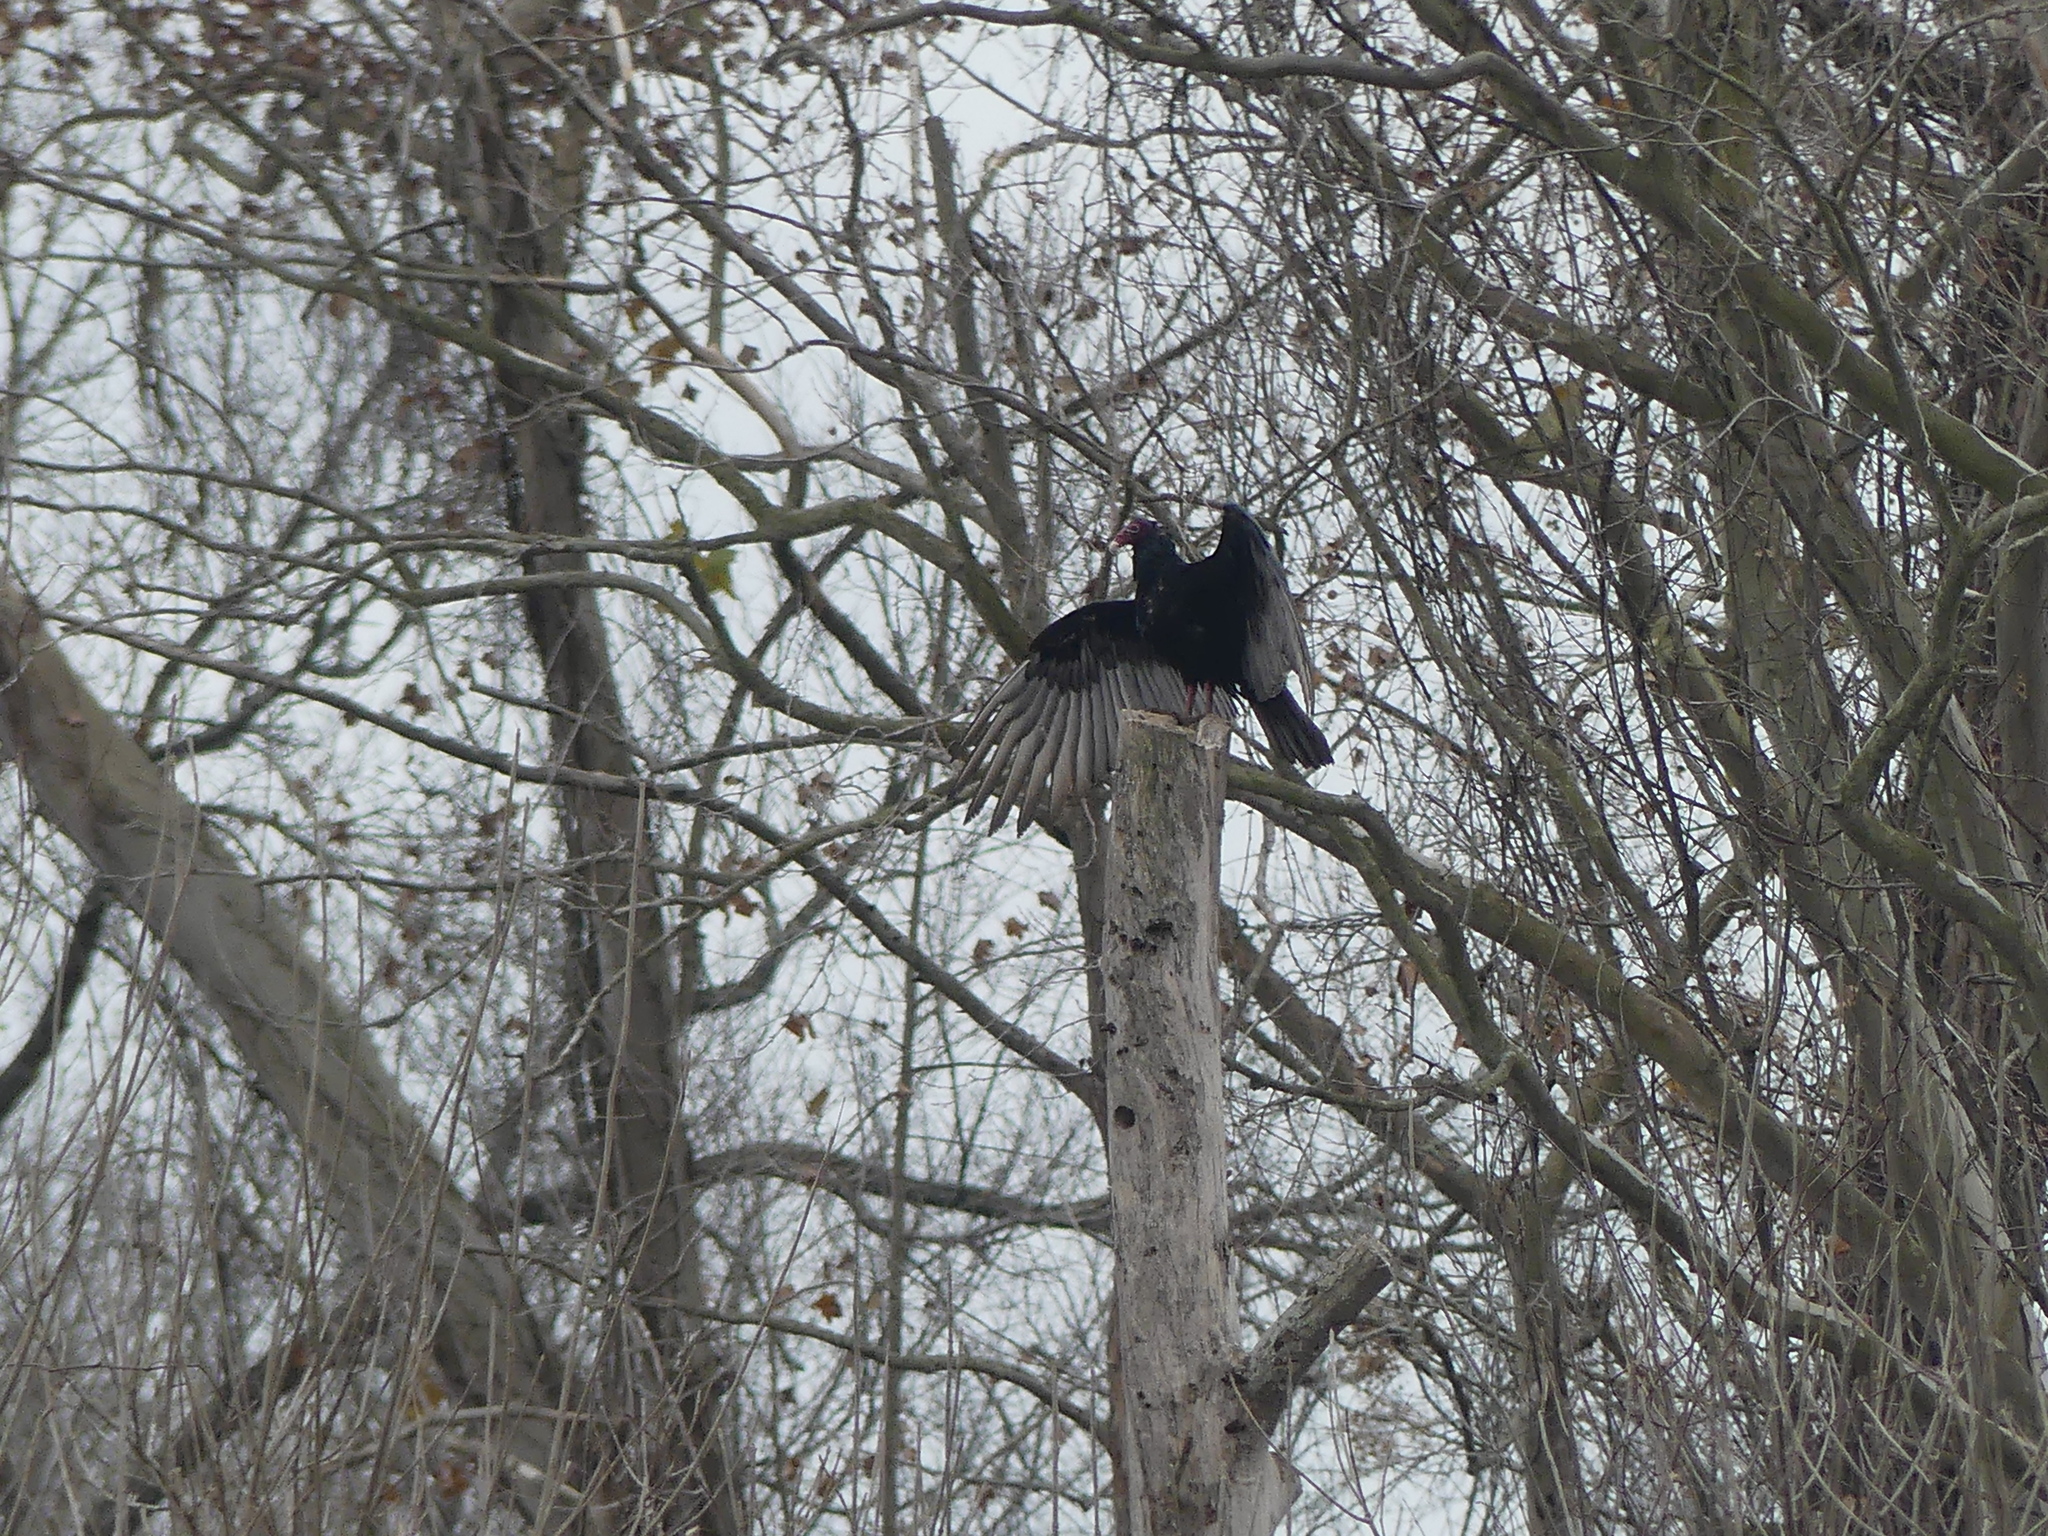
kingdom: Animalia
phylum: Chordata
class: Aves
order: Accipitriformes
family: Cathartidae
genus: Cathartes
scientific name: Cathartes aura
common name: Turkey vulture
